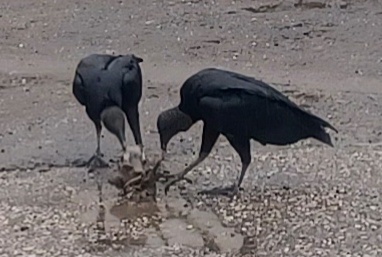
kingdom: Animalia
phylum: Chordata
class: Aves
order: Accipitriformes
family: Cathartidae
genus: Coragyps
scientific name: Coragyps atratus
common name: Black vulture
